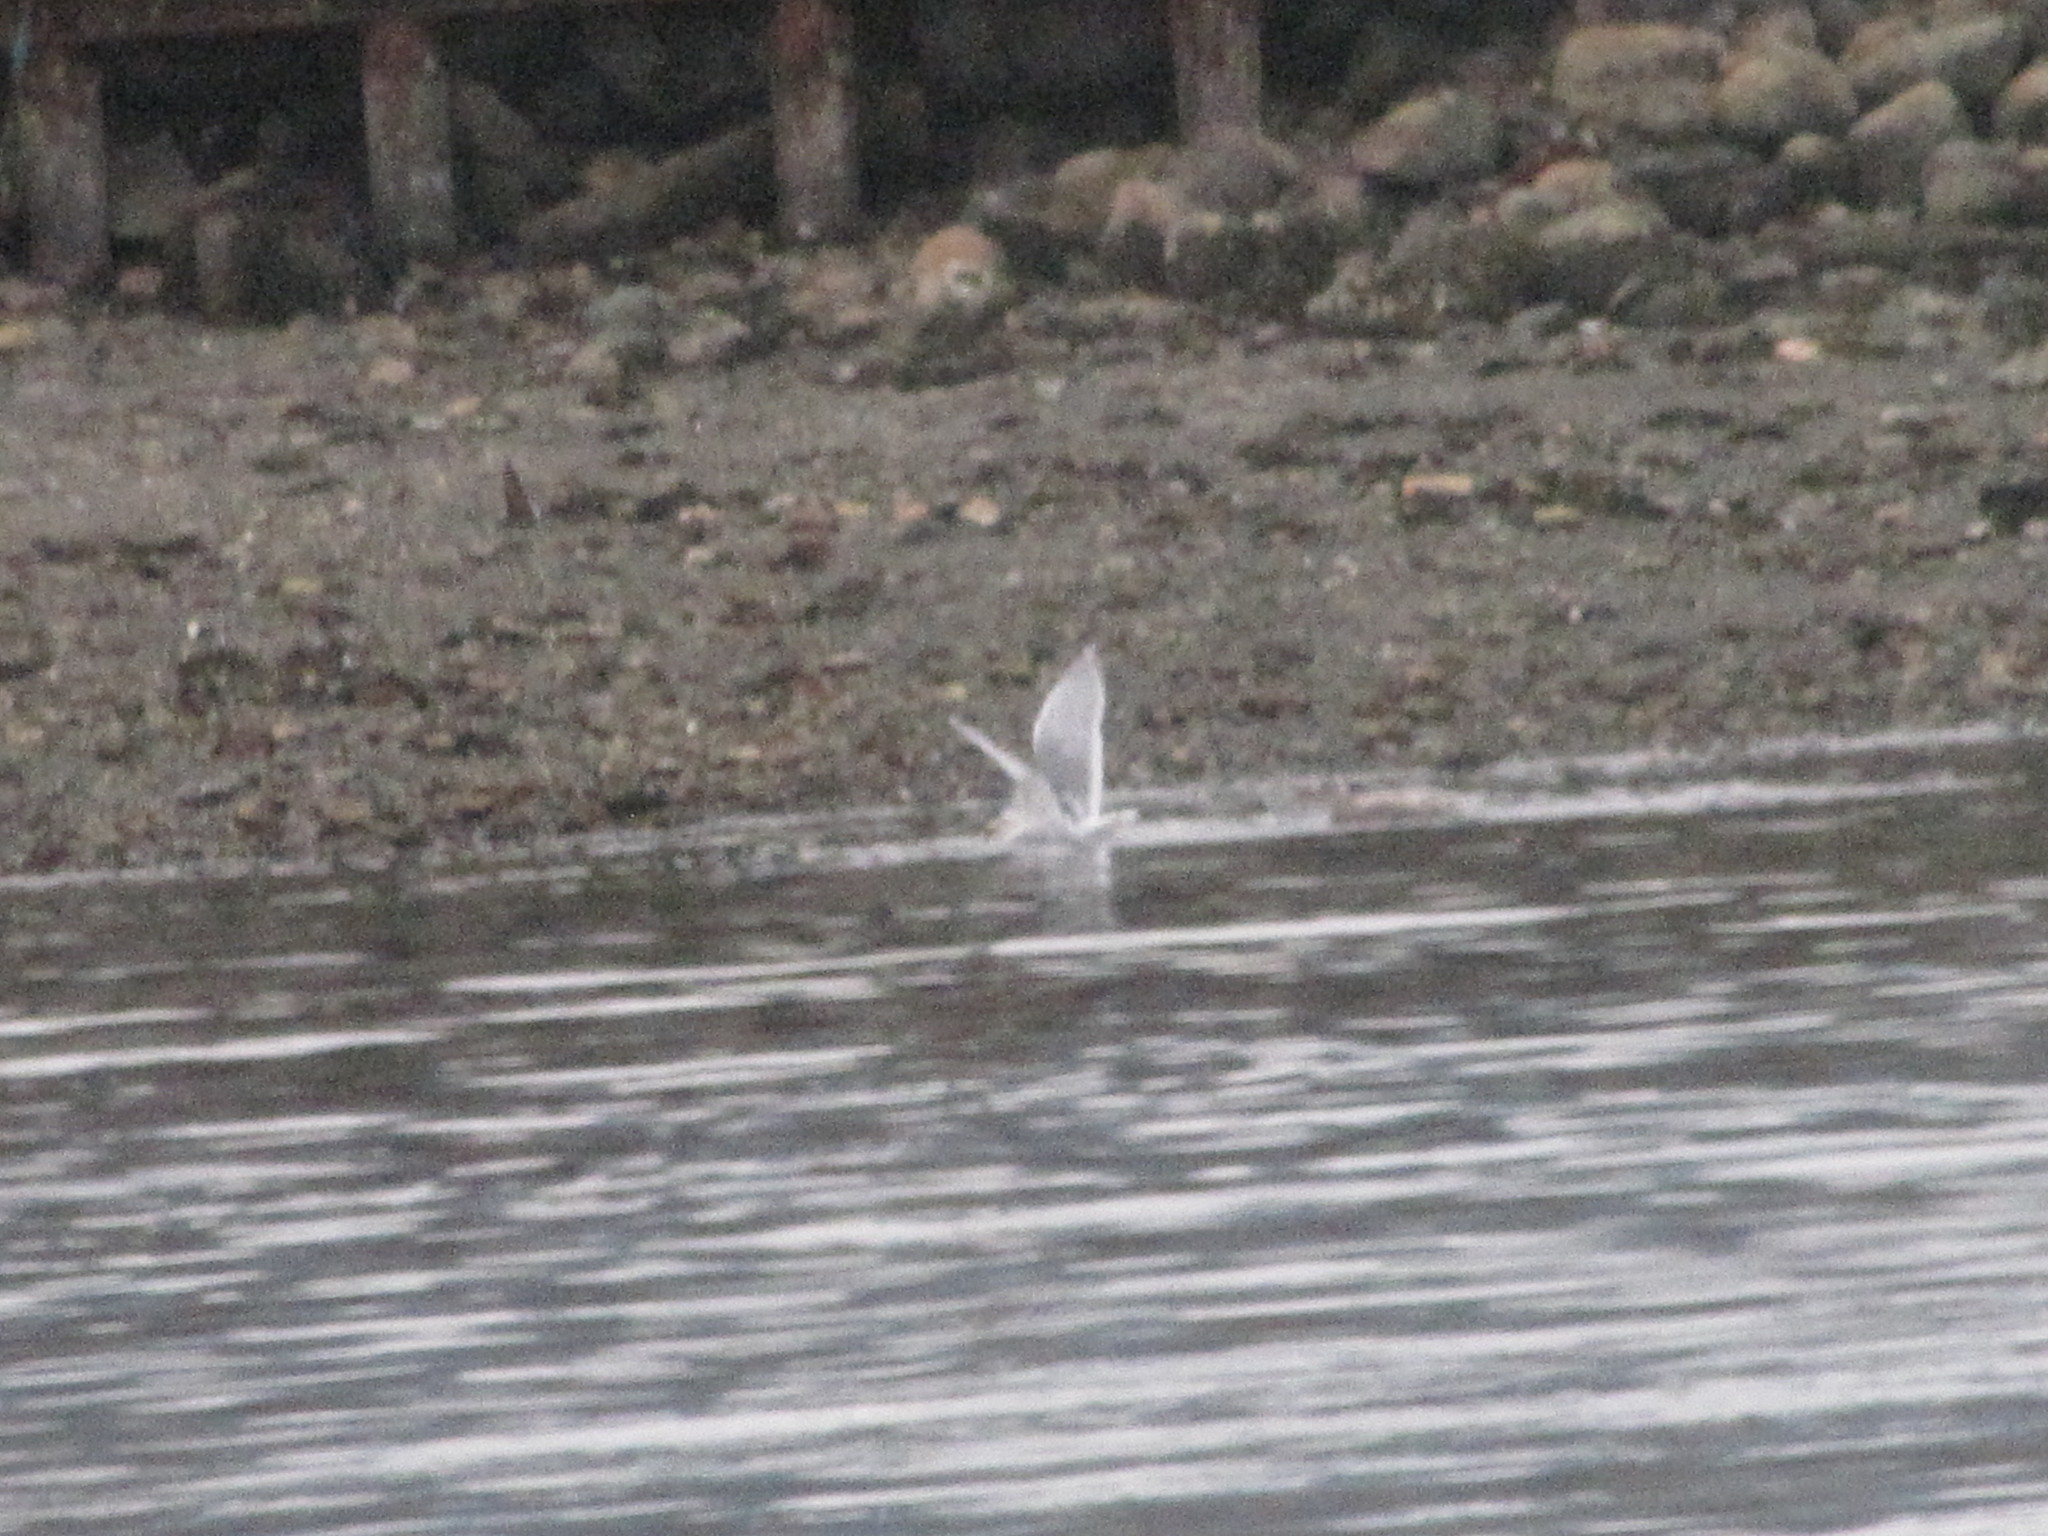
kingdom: Animalia
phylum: Chordata
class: Aves
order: Charadriiformes
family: Laridae
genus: Larus
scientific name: Larus glaucescens
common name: Glaucous-winged gull
